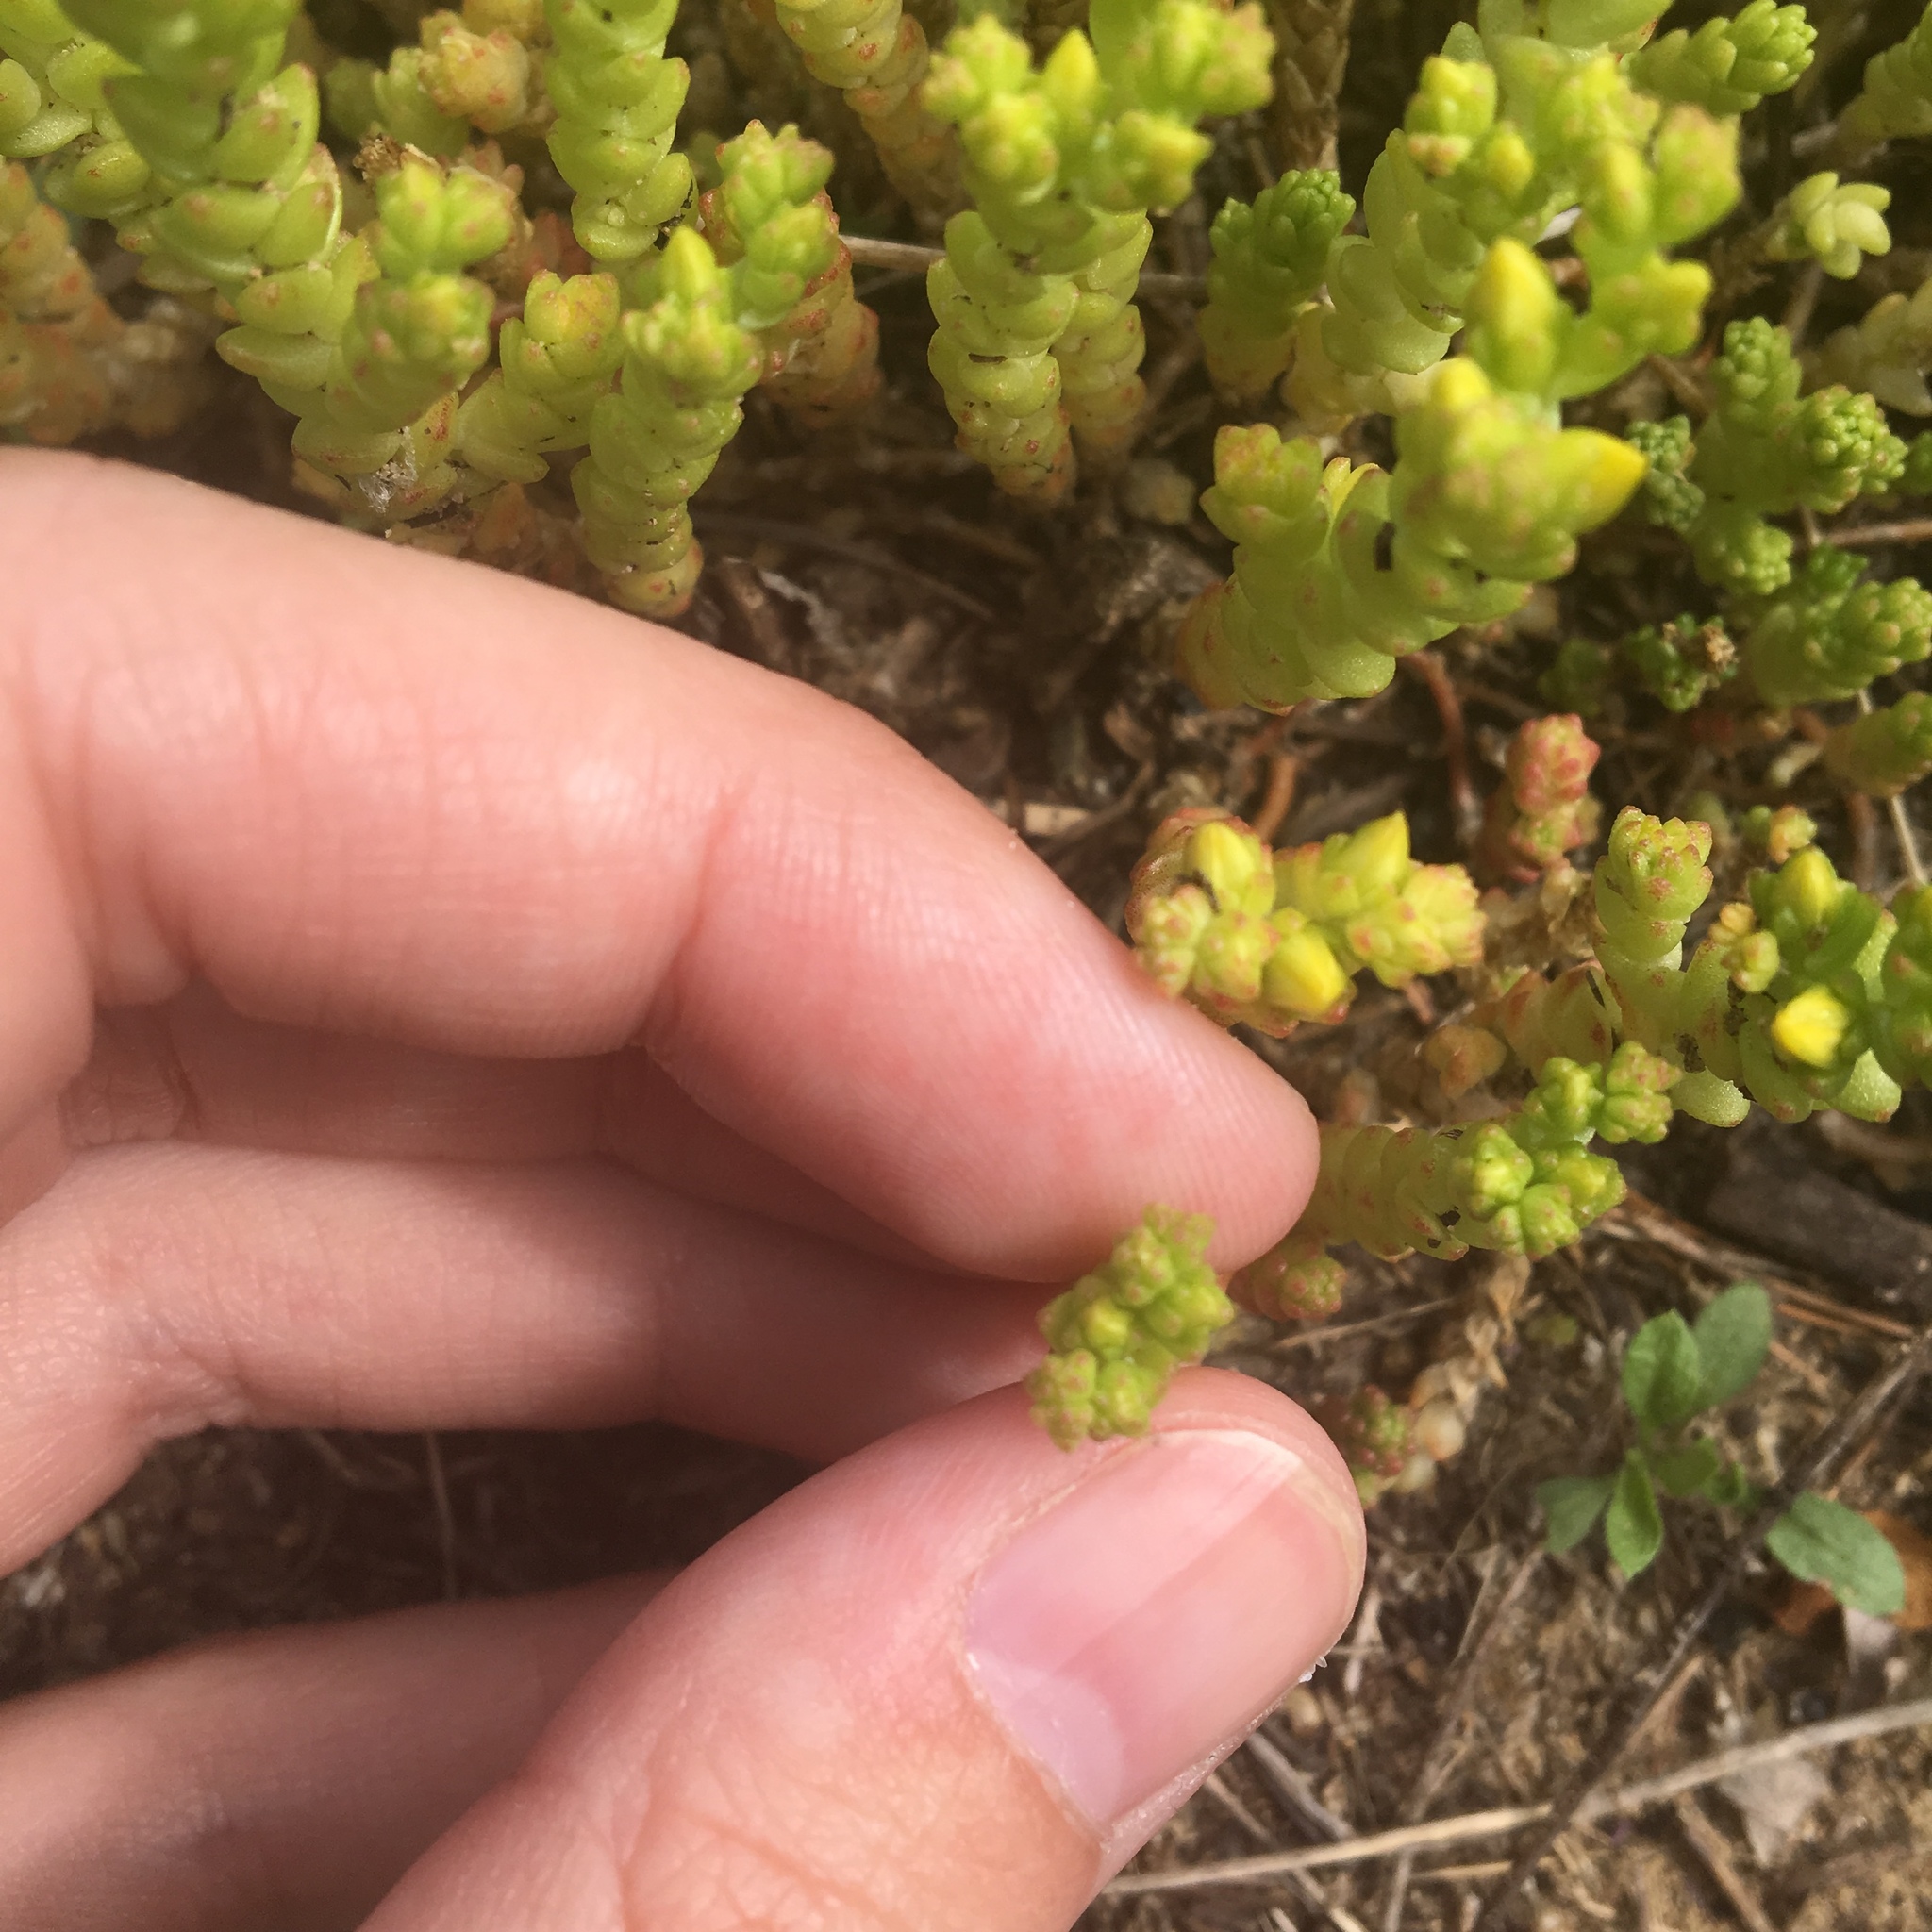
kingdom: Plantae
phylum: Tracheophyta
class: Magnoliopsida
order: Saxifragales
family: Crassulaceae
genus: Sedum
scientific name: Sedum acre
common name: Biting stonecrop
